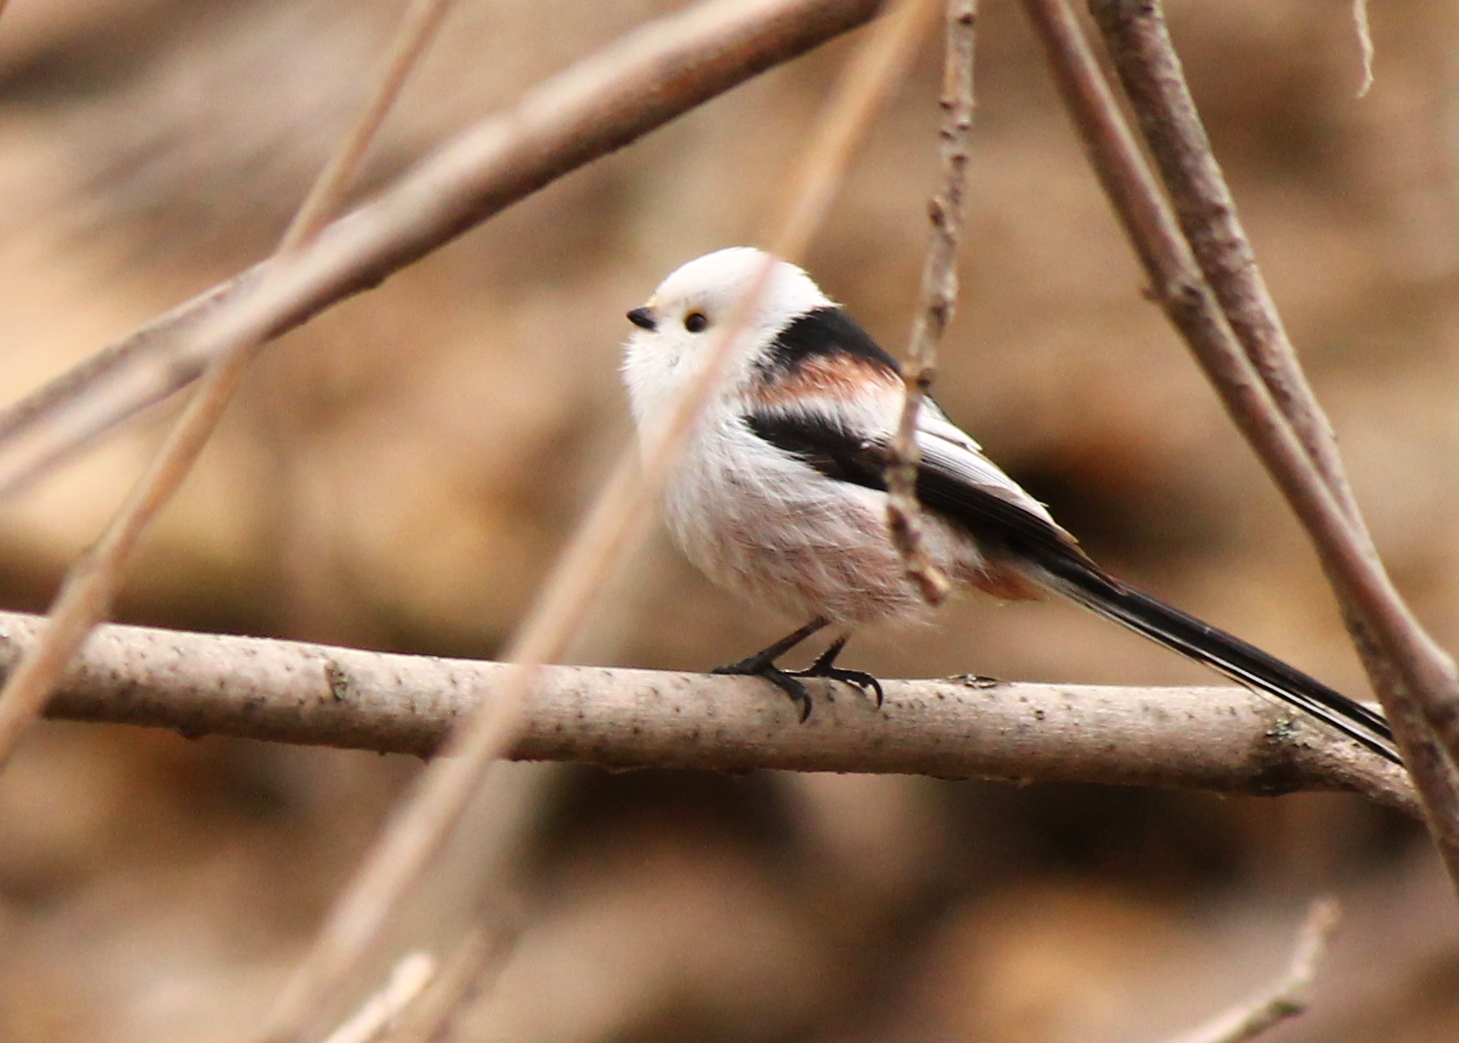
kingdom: Animalia
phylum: Chordata
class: Aves
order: Passeriformes
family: Aegithalidae
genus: Aegithalos
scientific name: Aegithalos caudatus
